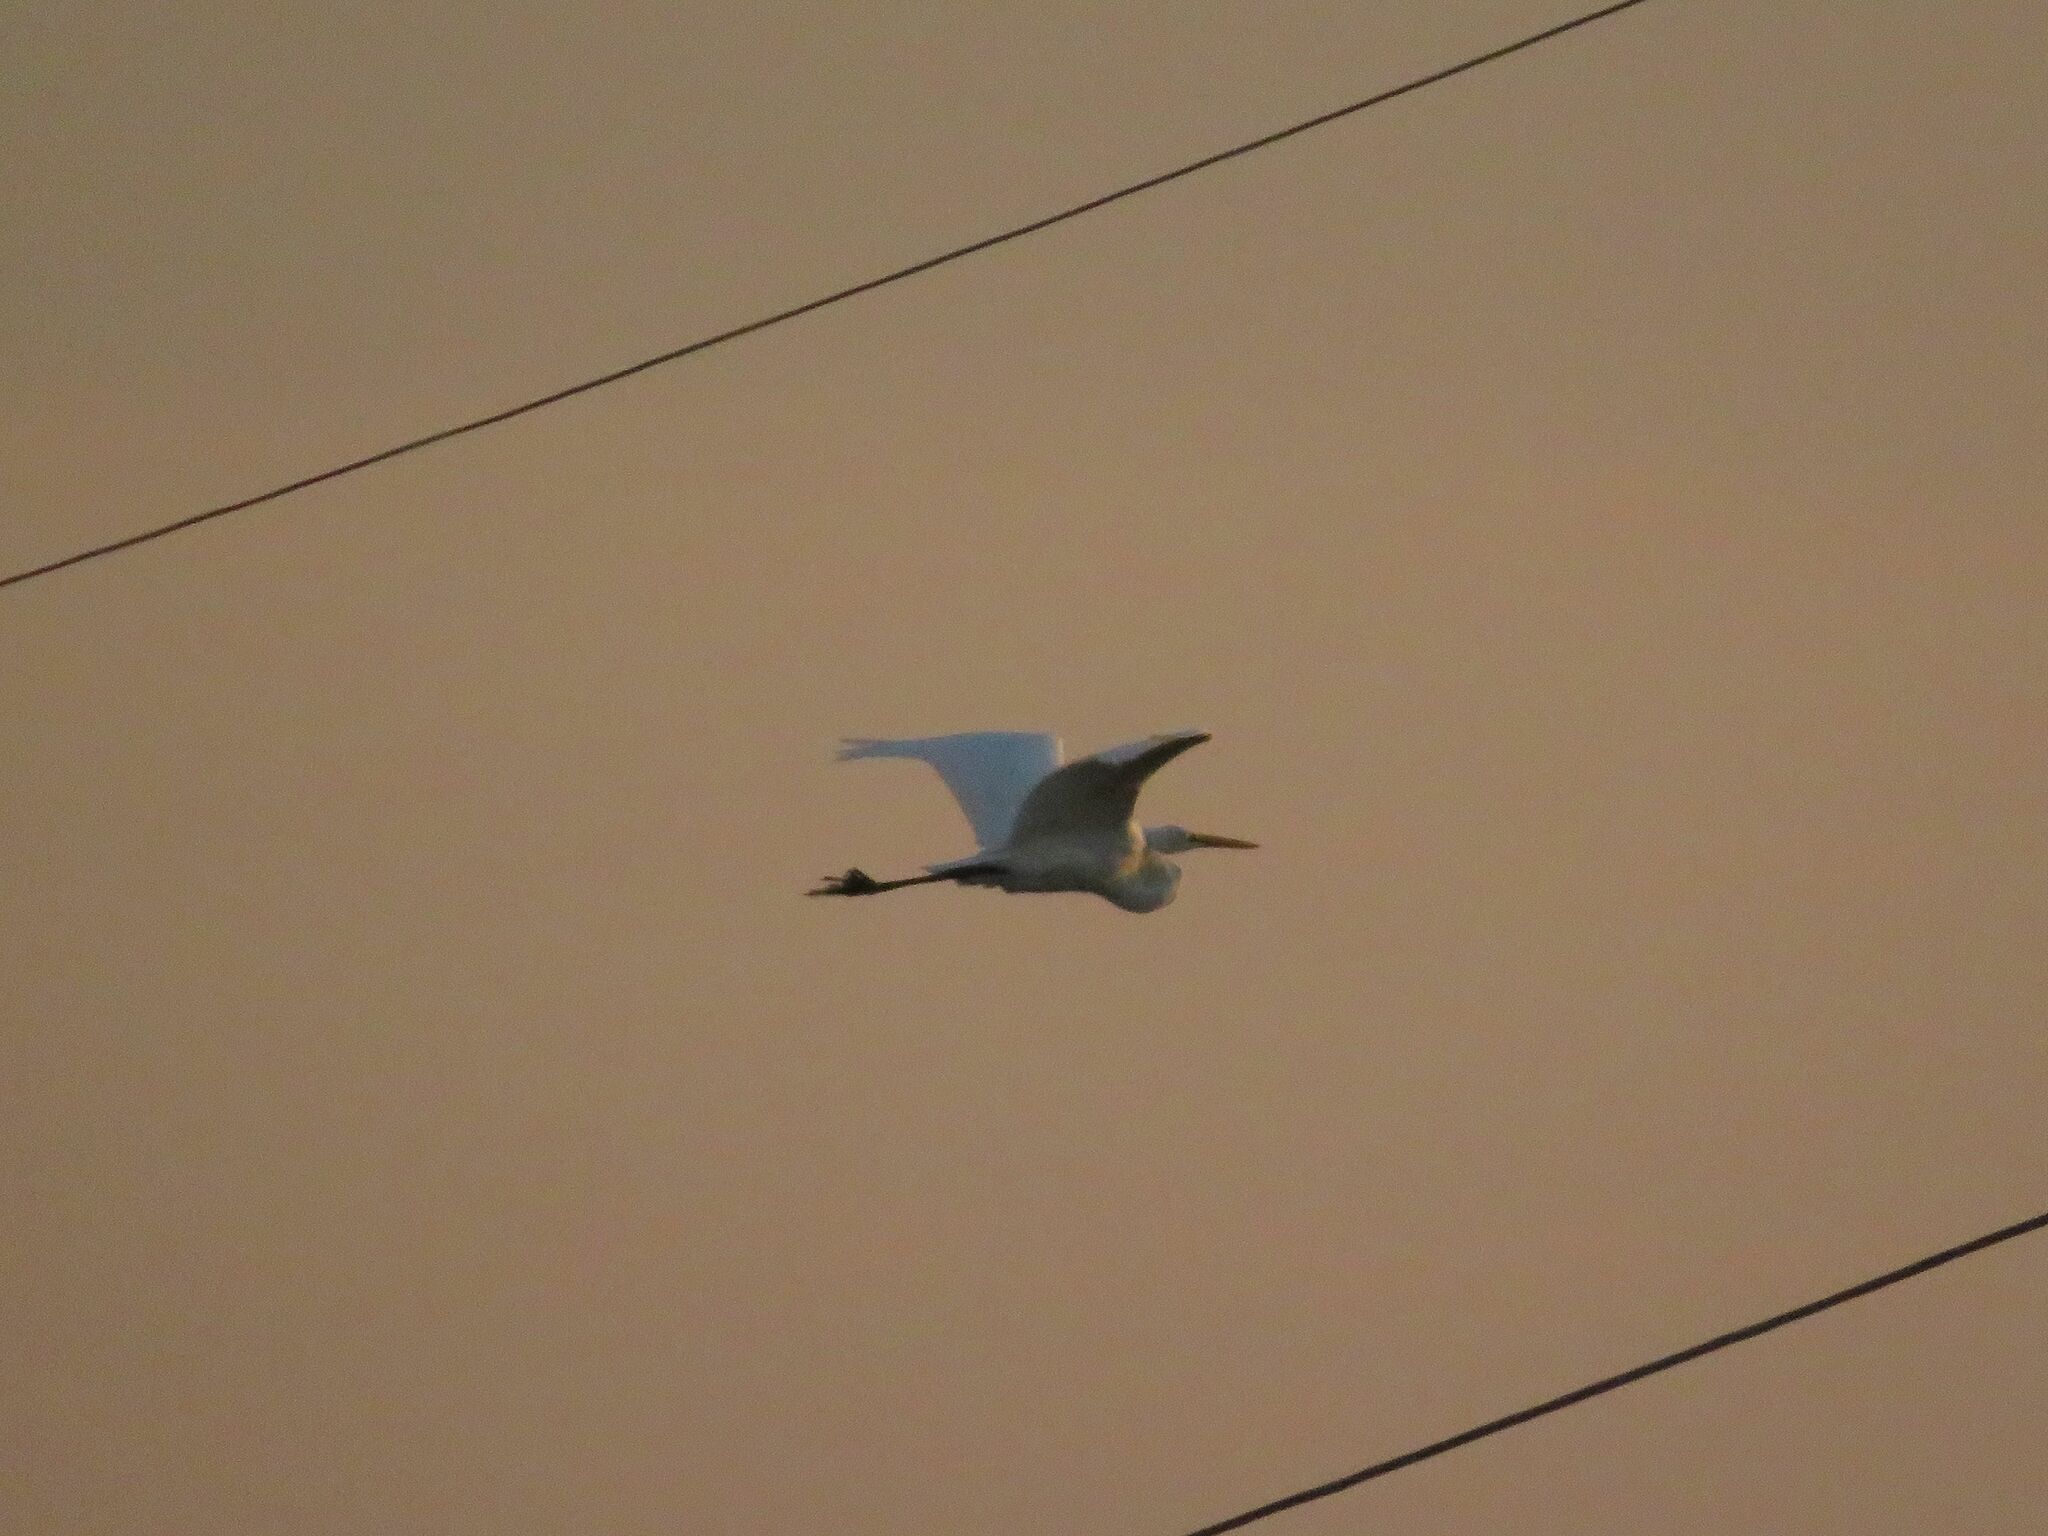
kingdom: Animalia
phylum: Chordata
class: Aves
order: Pelecaniformes
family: Ardeidae
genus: Ardea
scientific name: Ardea alba
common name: Great egret
